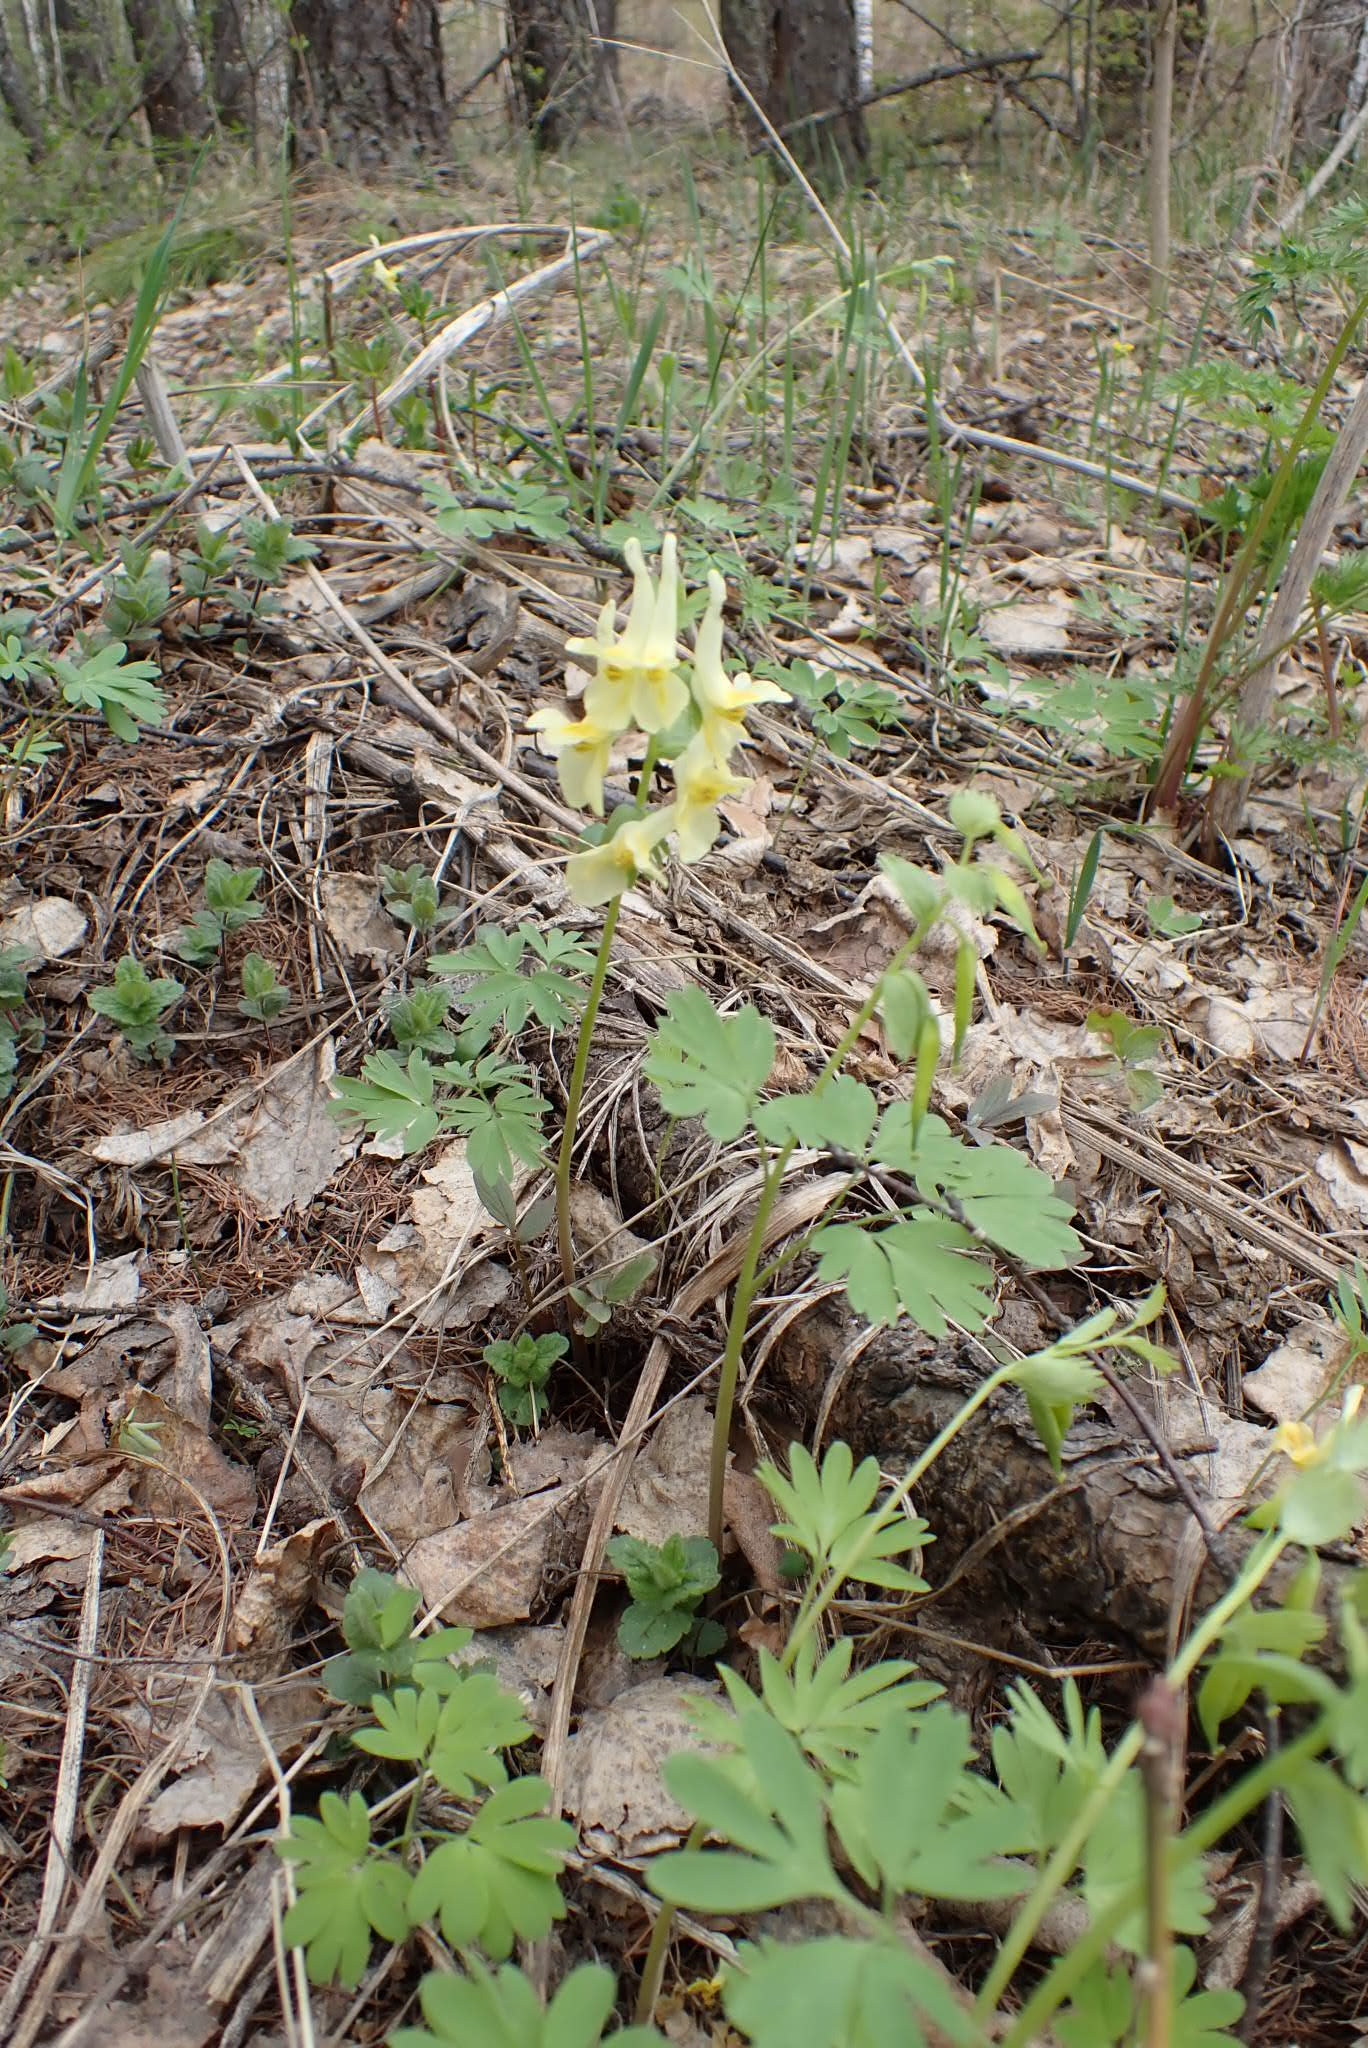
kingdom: Plantae
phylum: Tracheophyta
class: Magnoliopsida
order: Ranunculales
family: Papaveraceae
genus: Corydalis
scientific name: Corydalis bracteata
